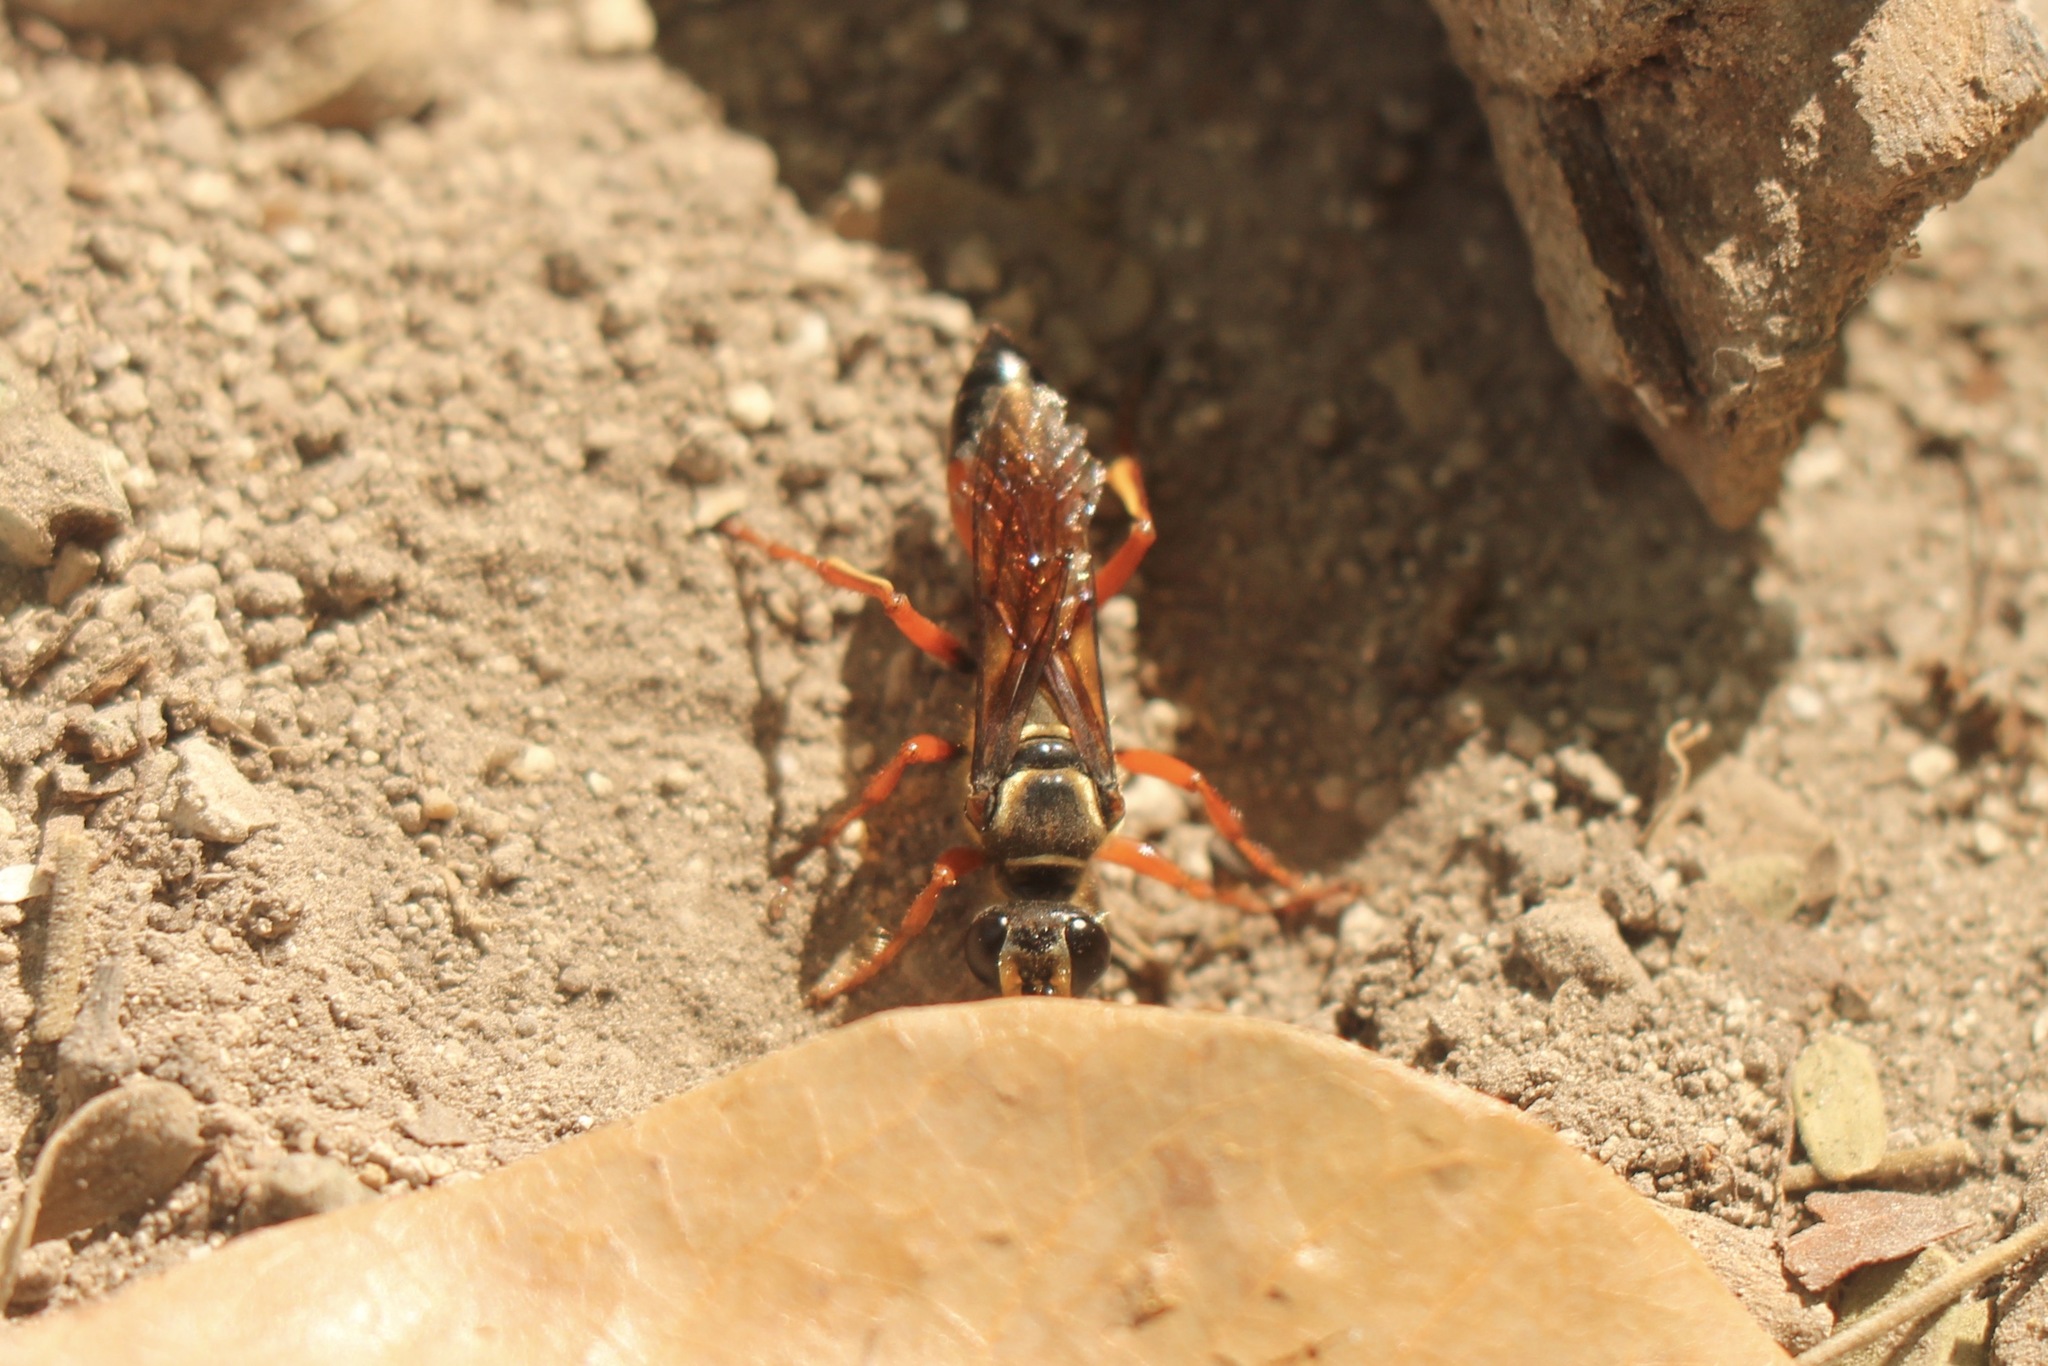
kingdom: Animalia
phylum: Arthropoda
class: Insecta
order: Hymenoptera
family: Sphecidae
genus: Sphex
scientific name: Sphex ichneumoneus
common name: Great golden digger wasp
